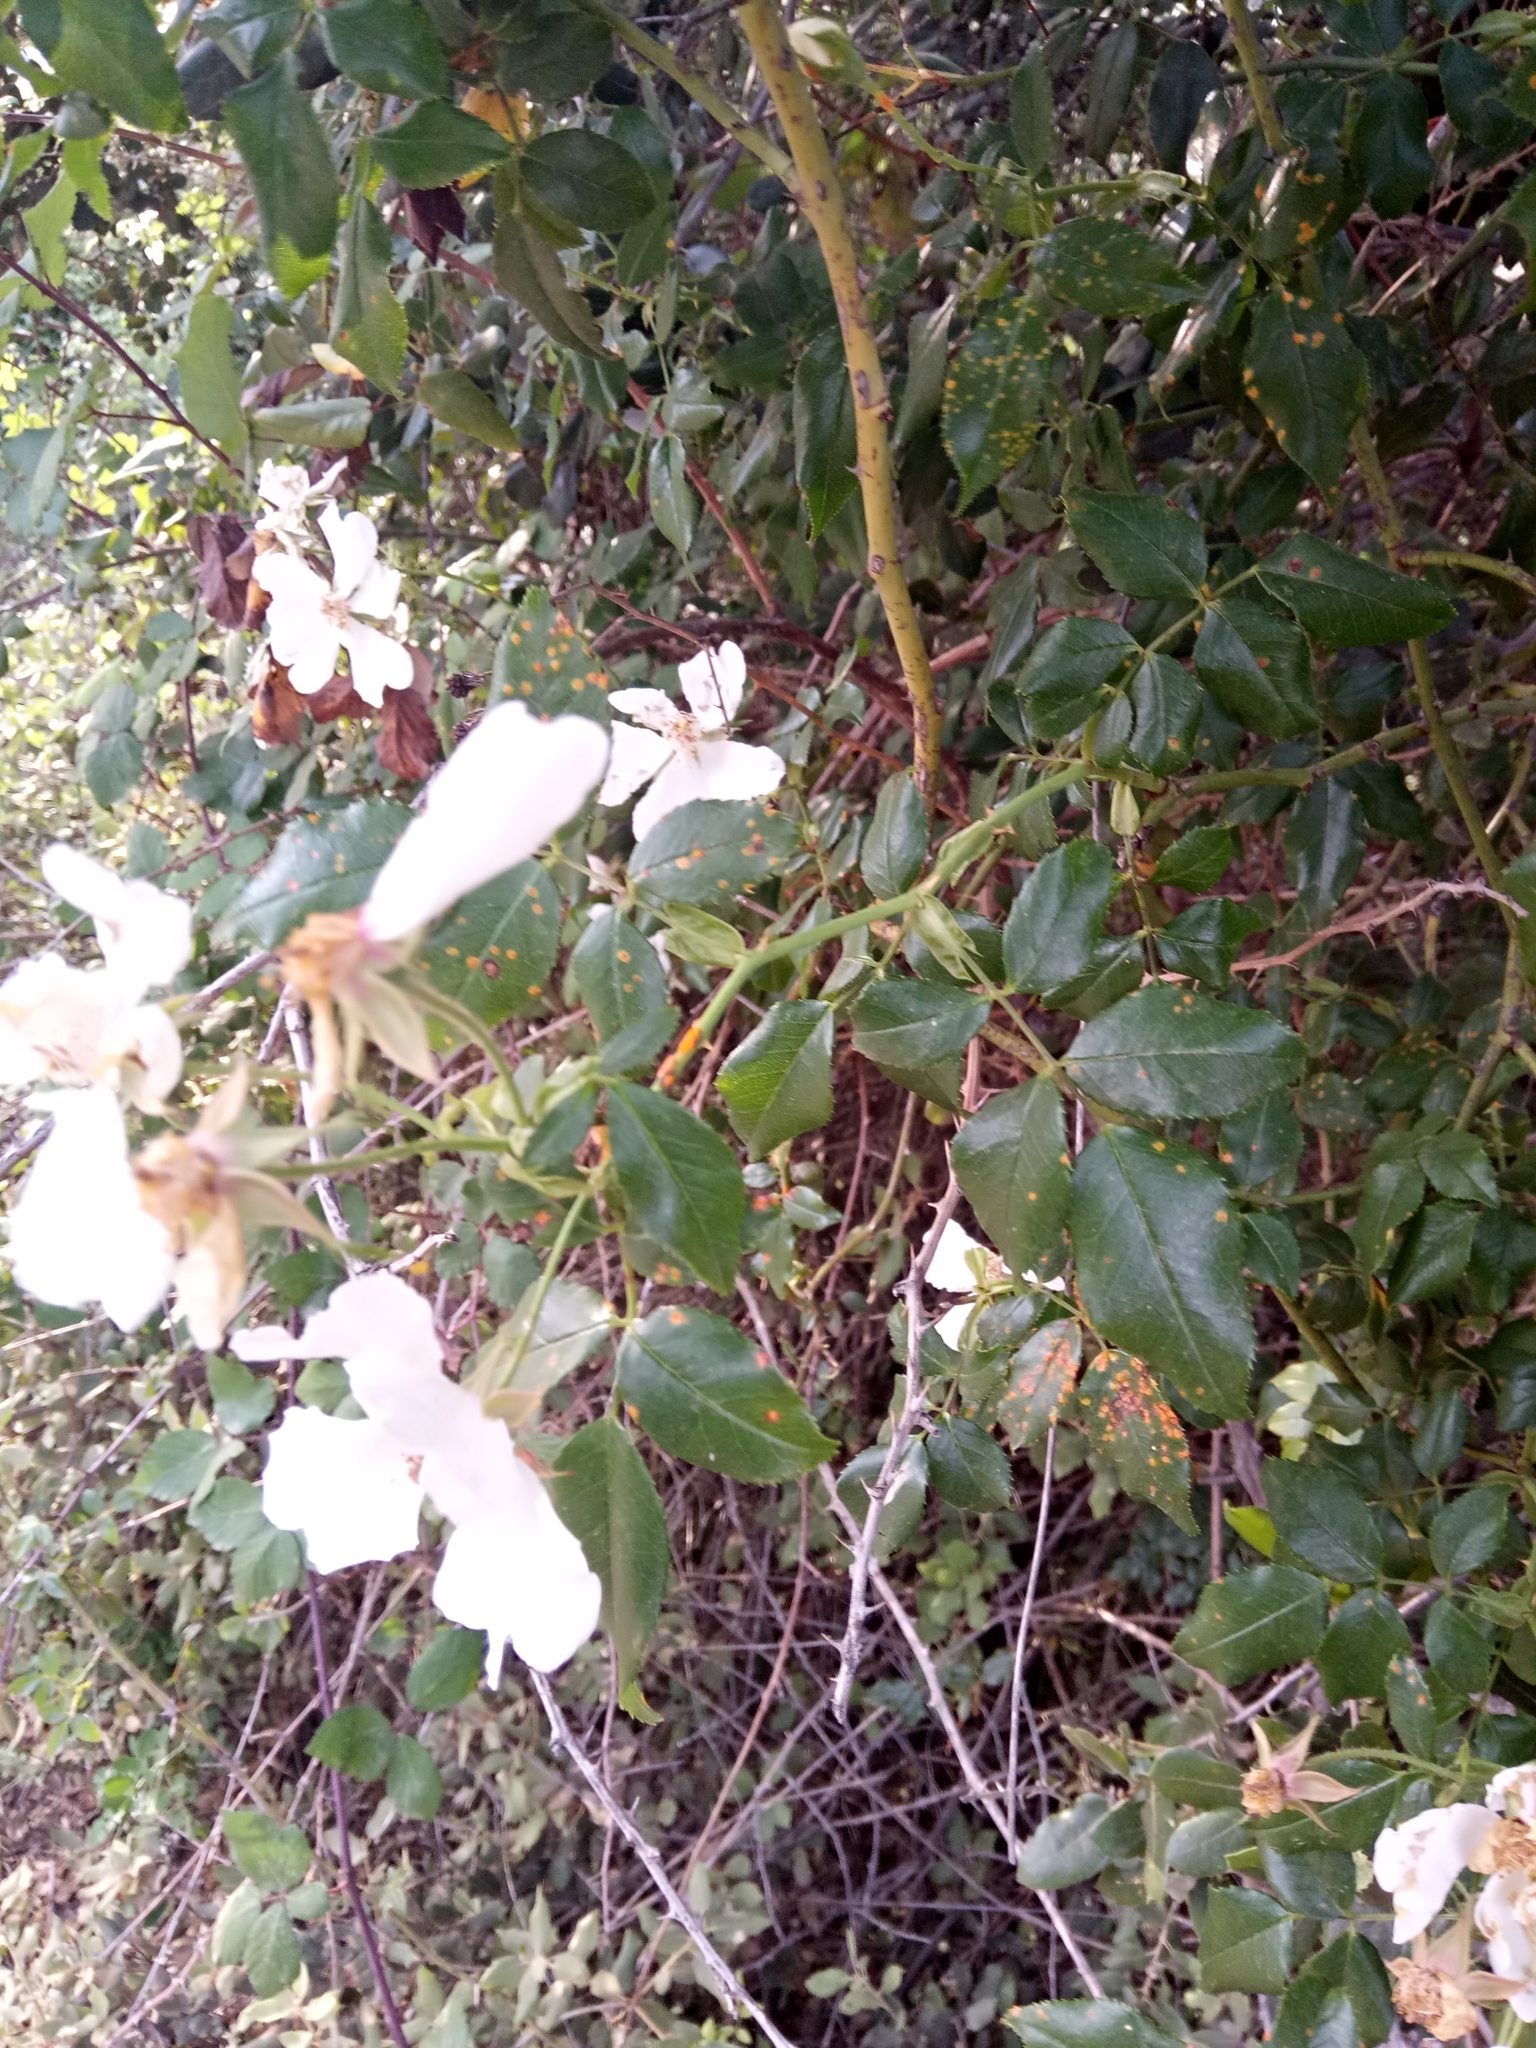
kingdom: Plantae
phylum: Tracheophyta
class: Magnoliopsida
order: Rosales
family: Rosaceae
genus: Rosa
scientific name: Rosa sempervirens
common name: Evergreen rose
